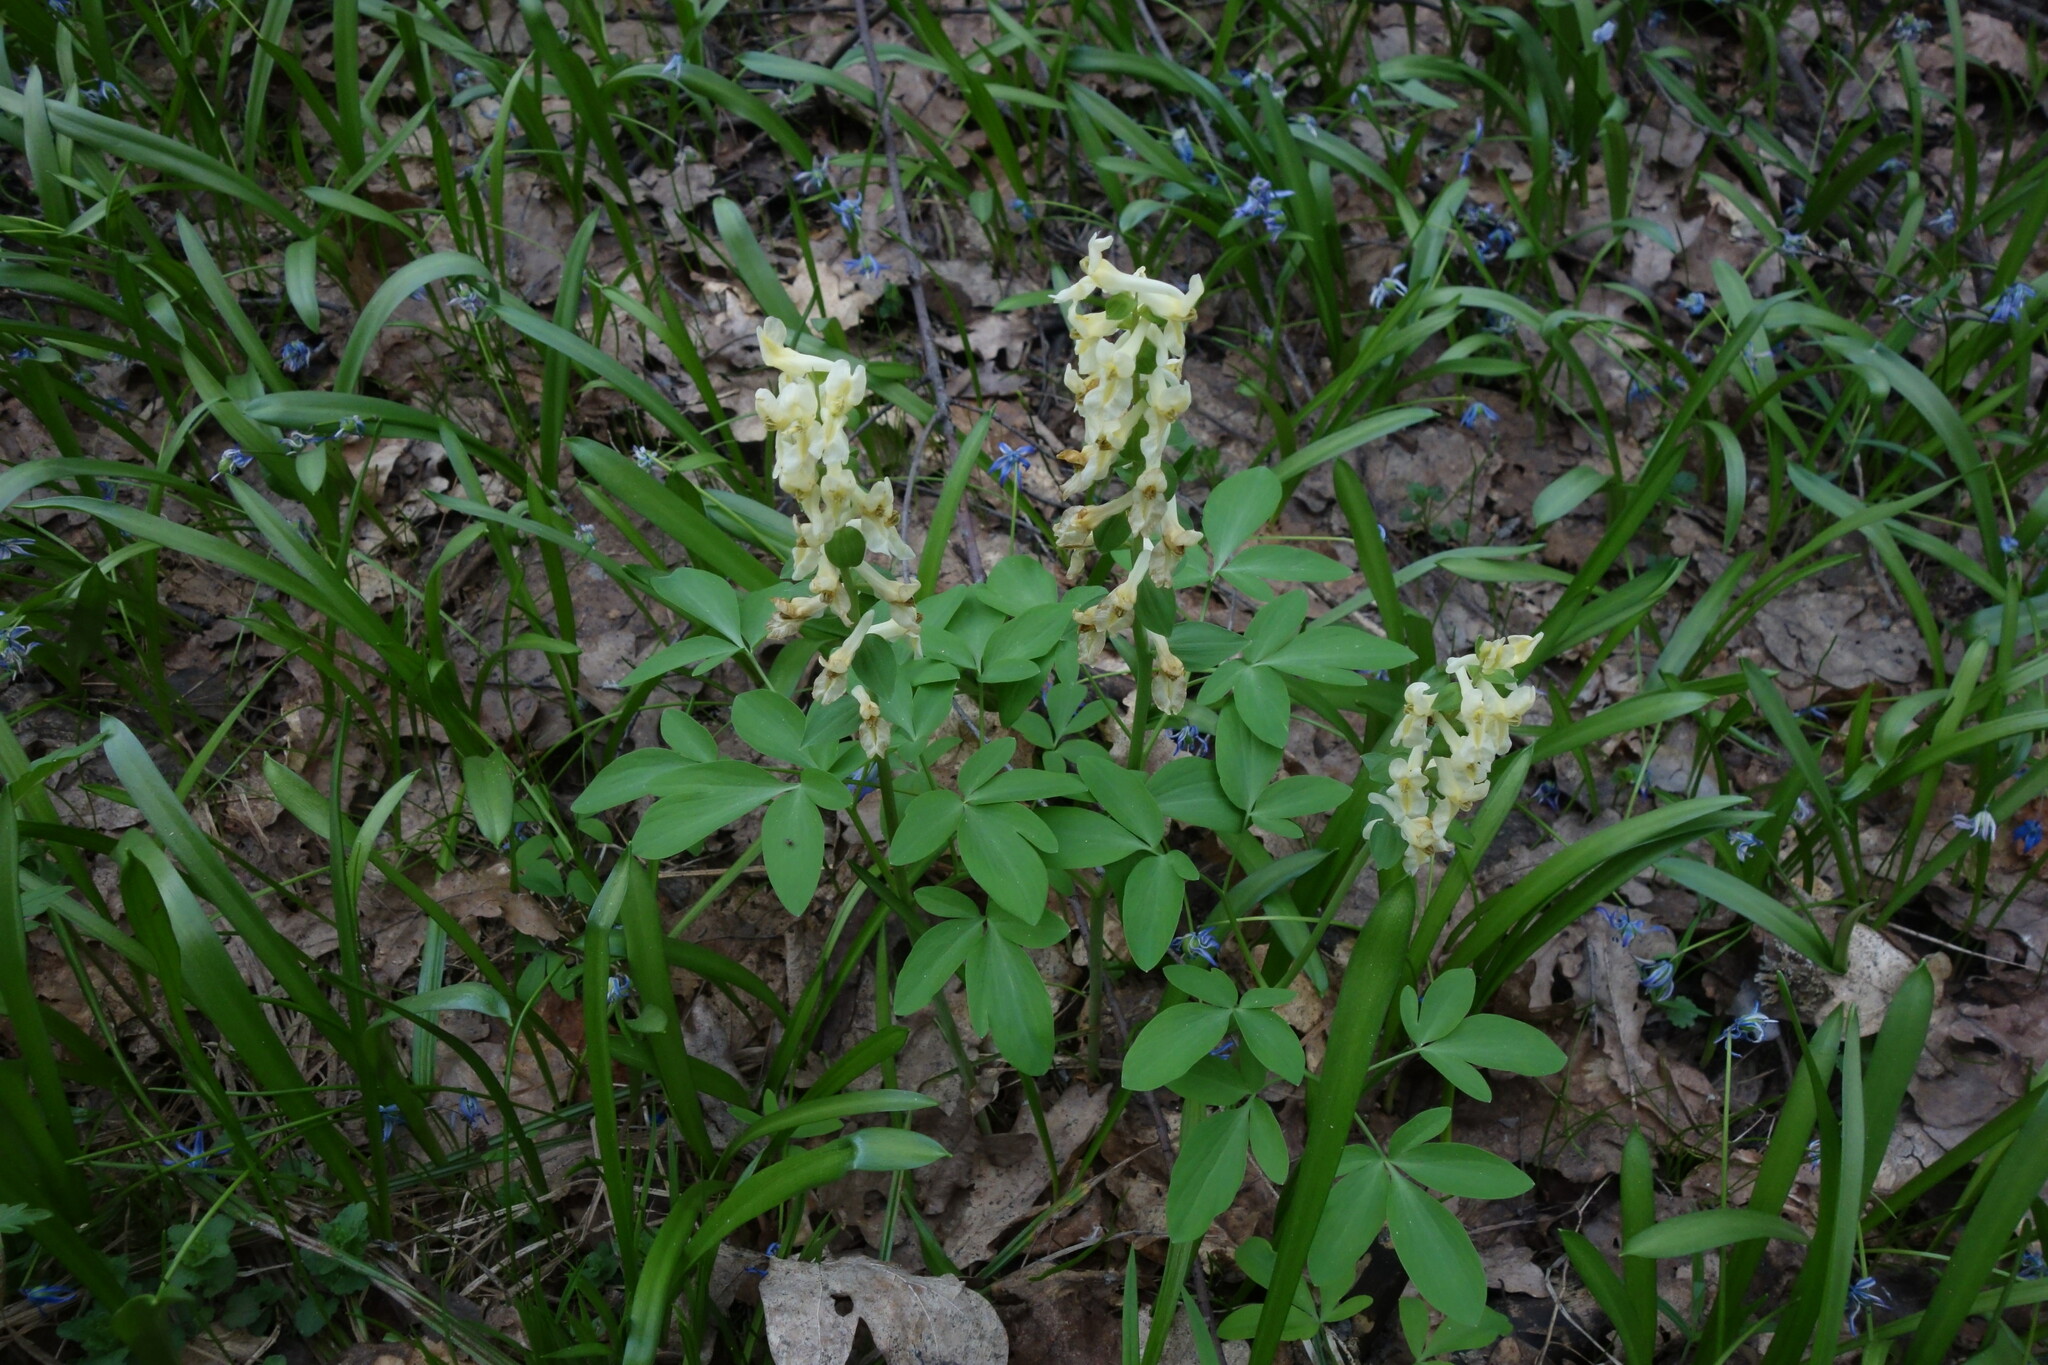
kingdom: Plantae
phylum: Tracheophyta
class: Magnoliopsida
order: Ranunculales
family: Papaveraceae
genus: Corydalis
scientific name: Corydalis cava
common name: Hollowroot
